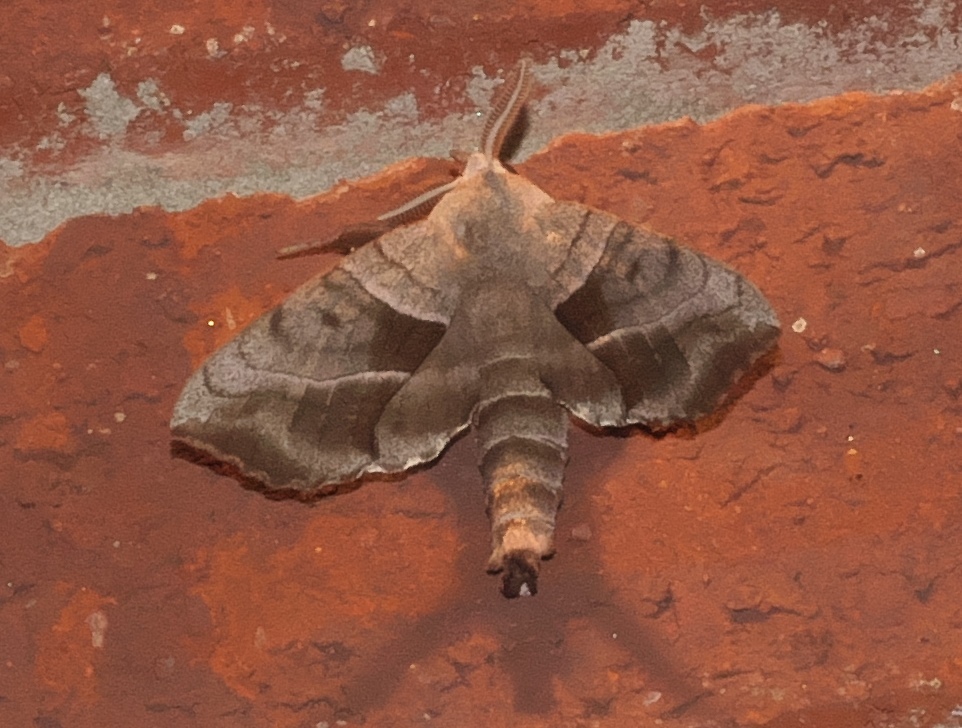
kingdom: Animalia
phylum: Arthropoda
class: Insecta
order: Lepidoptera
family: Sphingidae
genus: Amorpha
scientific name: Amorpha juglandis
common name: Walnut sphinx
